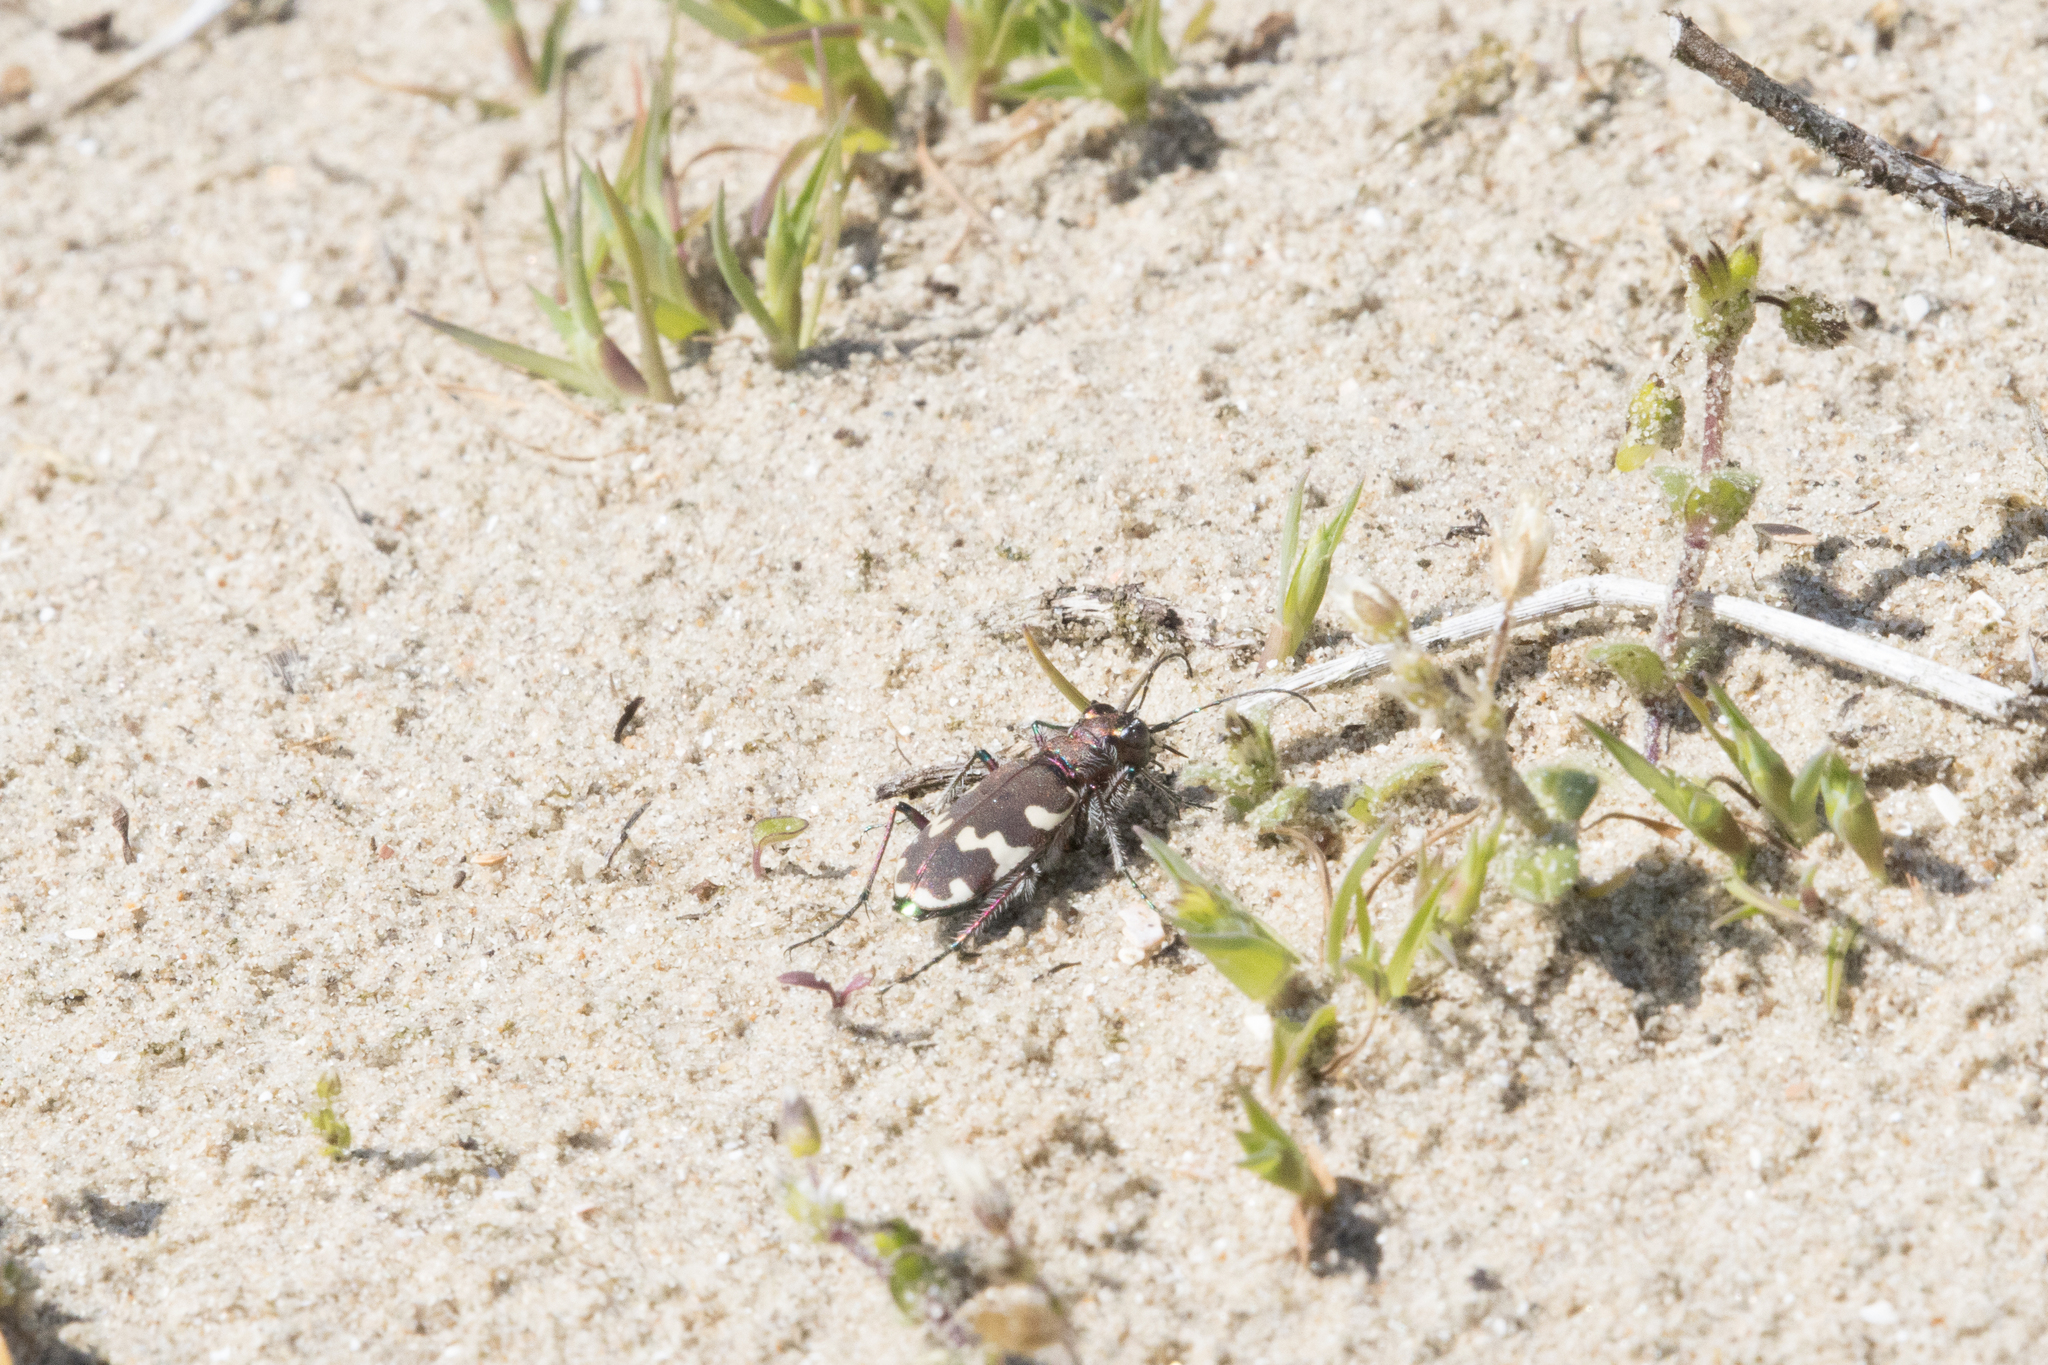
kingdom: Animalia
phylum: Arthropoda
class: Insecta
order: Coleoptera
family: Carabidae
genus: Cicindela
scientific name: Cicindela hybrida
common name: Northern dune tiger beetle
